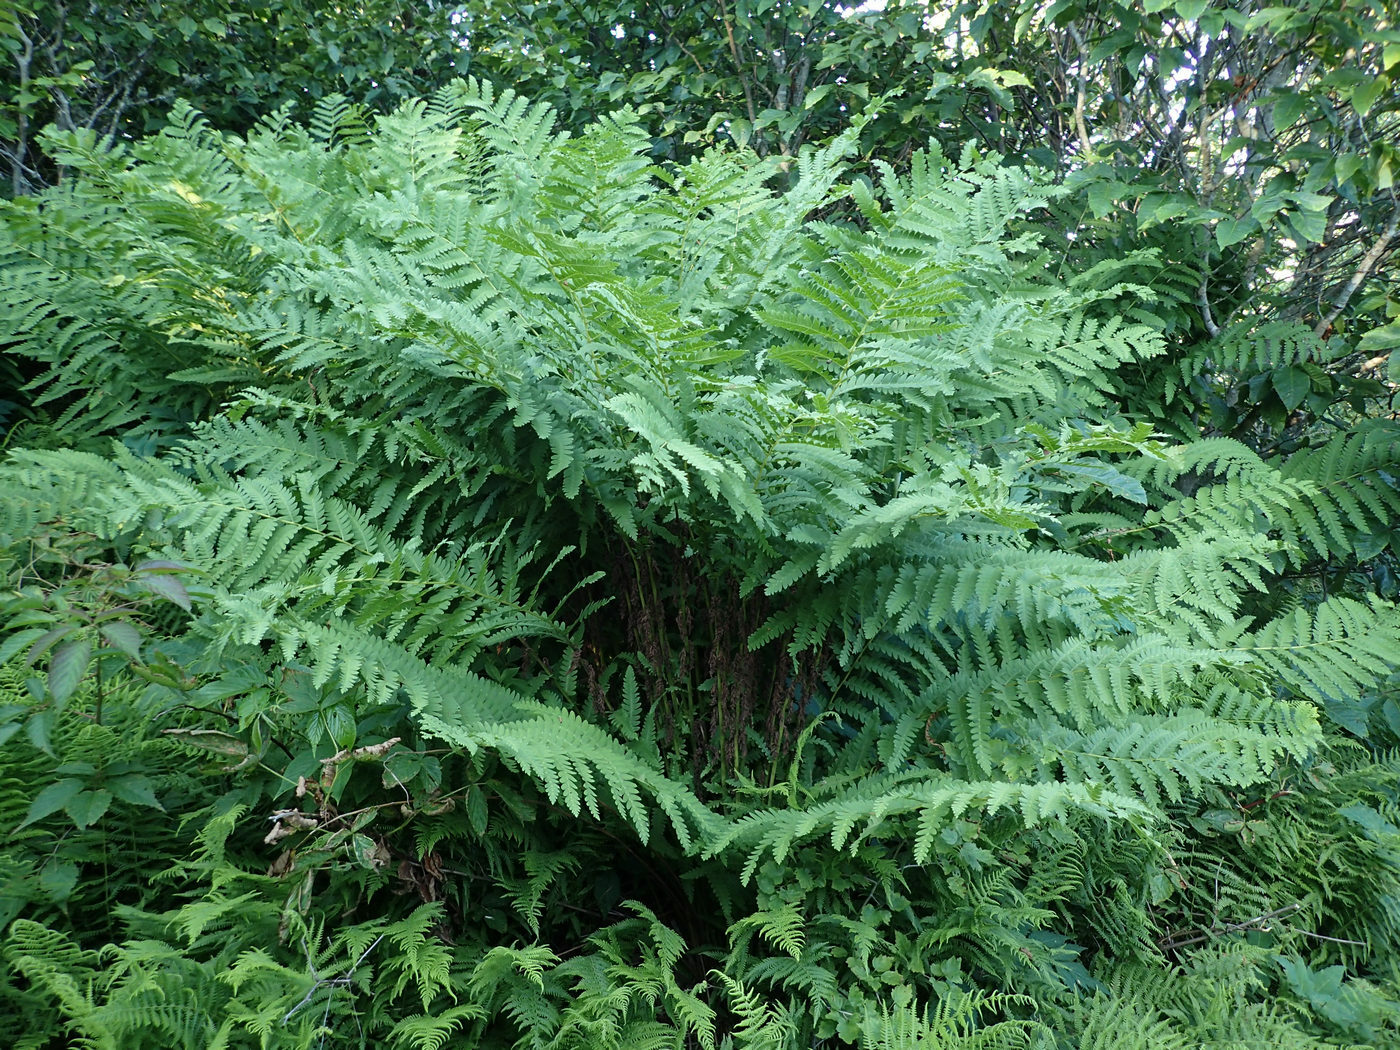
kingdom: Plantae
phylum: Tracheophyta
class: Polypodiopsida
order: Osmundales
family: Osmundaceae
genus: Claytosmunda
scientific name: Claytosmunda claytoniana
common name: Clayton's fern
